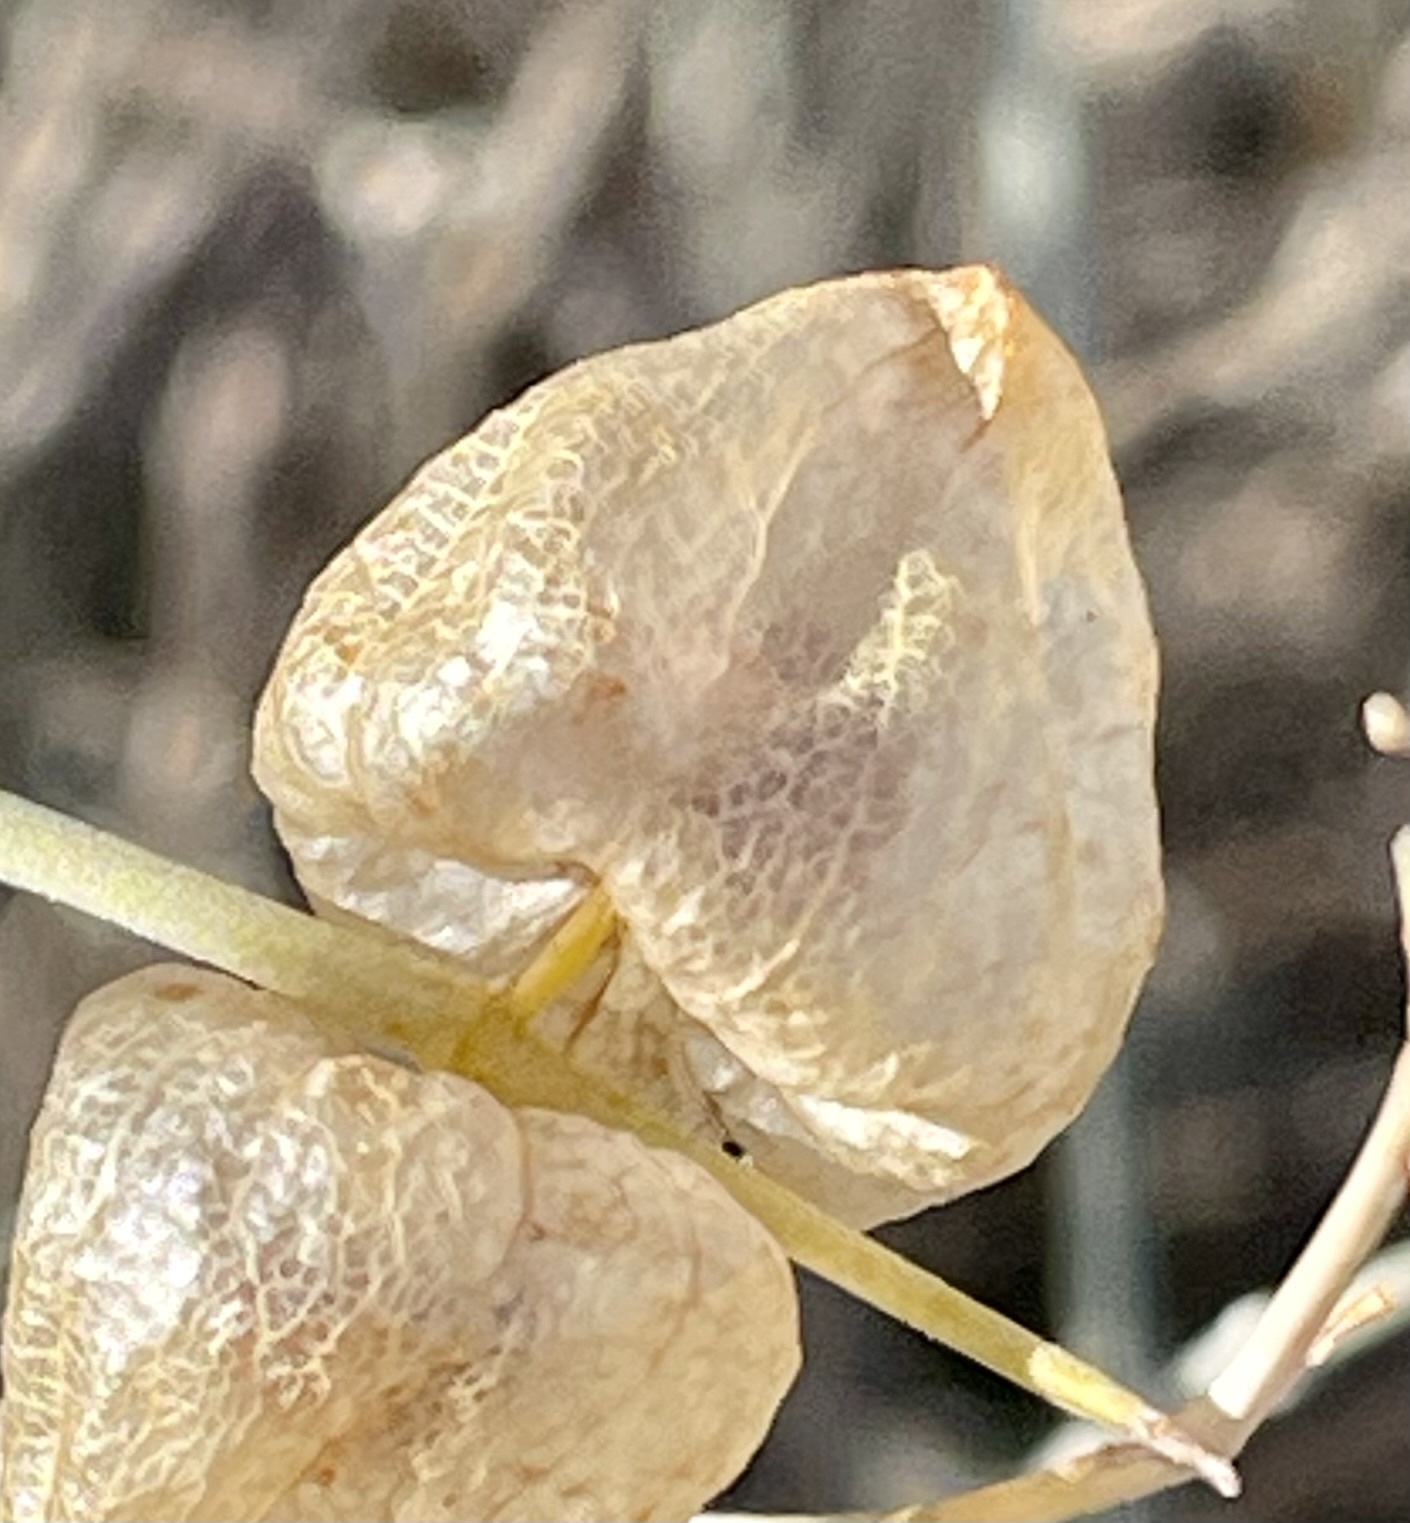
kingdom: Plantae
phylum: Tracheophyta
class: Magnoliopsida
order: Lamiales
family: Lamiaceae
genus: Scutellaria
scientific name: Scutellaria mexicana
